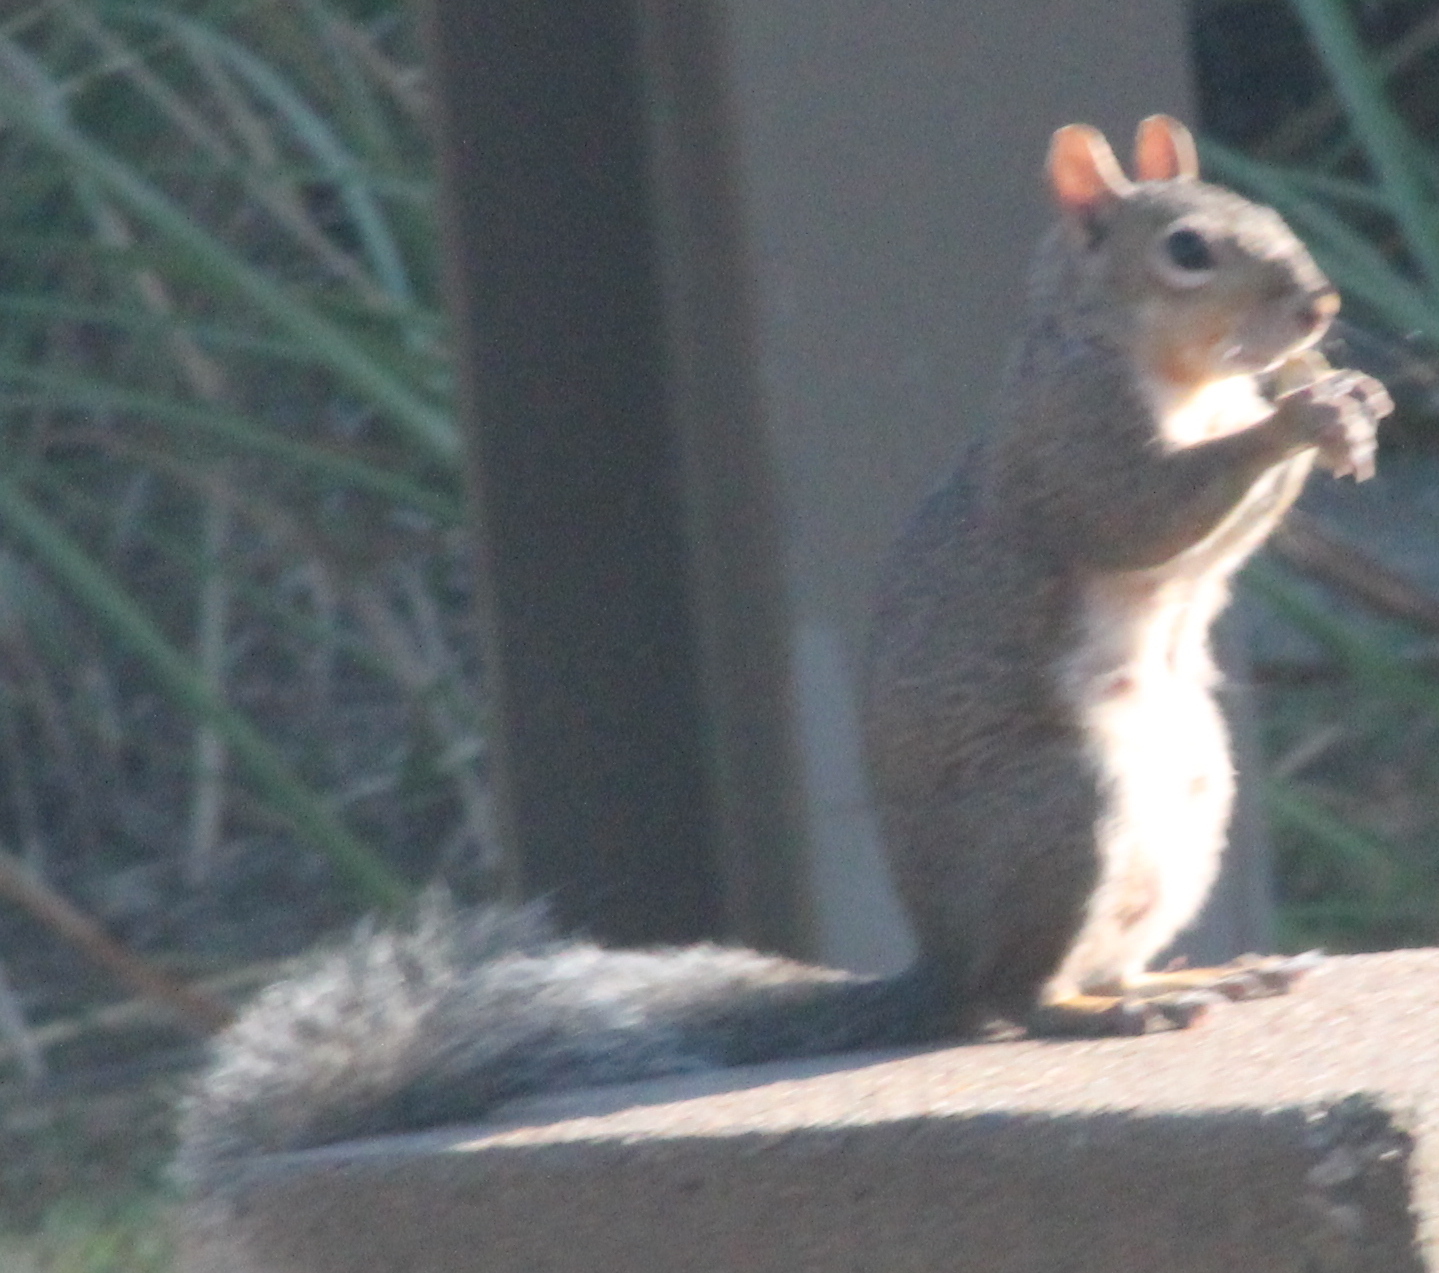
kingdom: Animalia
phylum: Chordata
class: Mammalia
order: Rodentia
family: Sciuridae
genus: Sciurus
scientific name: Sciurus carolinensis
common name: Eastern gray squirrel
